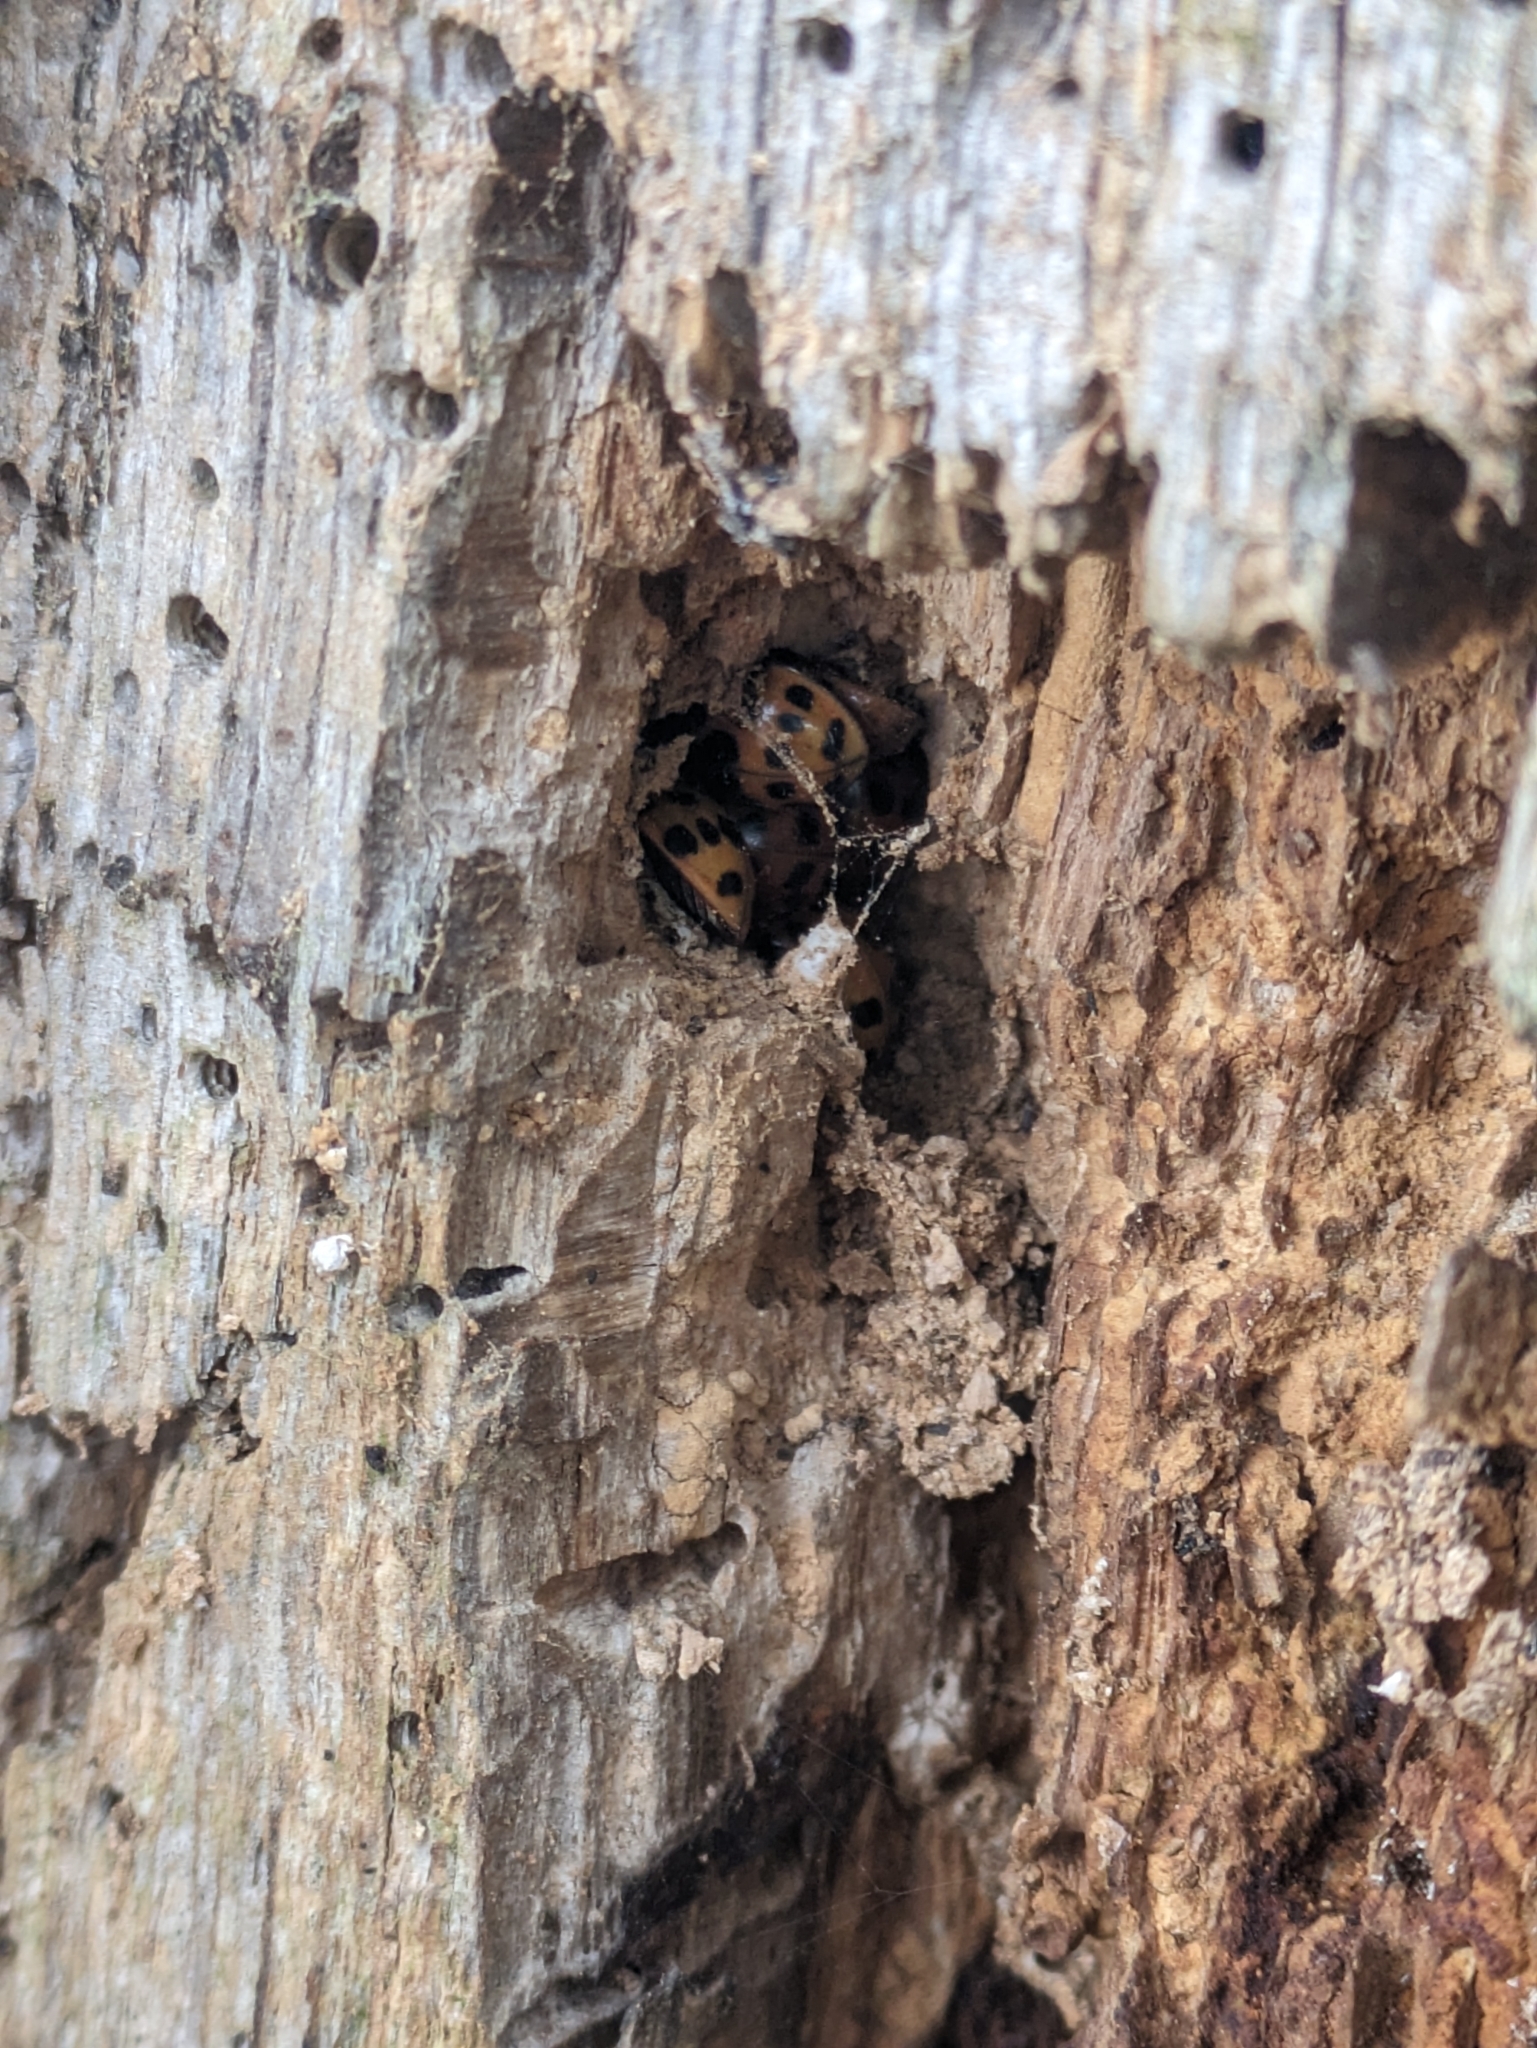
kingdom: Animalia
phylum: Arthropoda
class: Insecta
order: Coleoptera
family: Coccinellidae
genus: Harmonia
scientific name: Harmonia axyridis
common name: Harlequin ladybird
